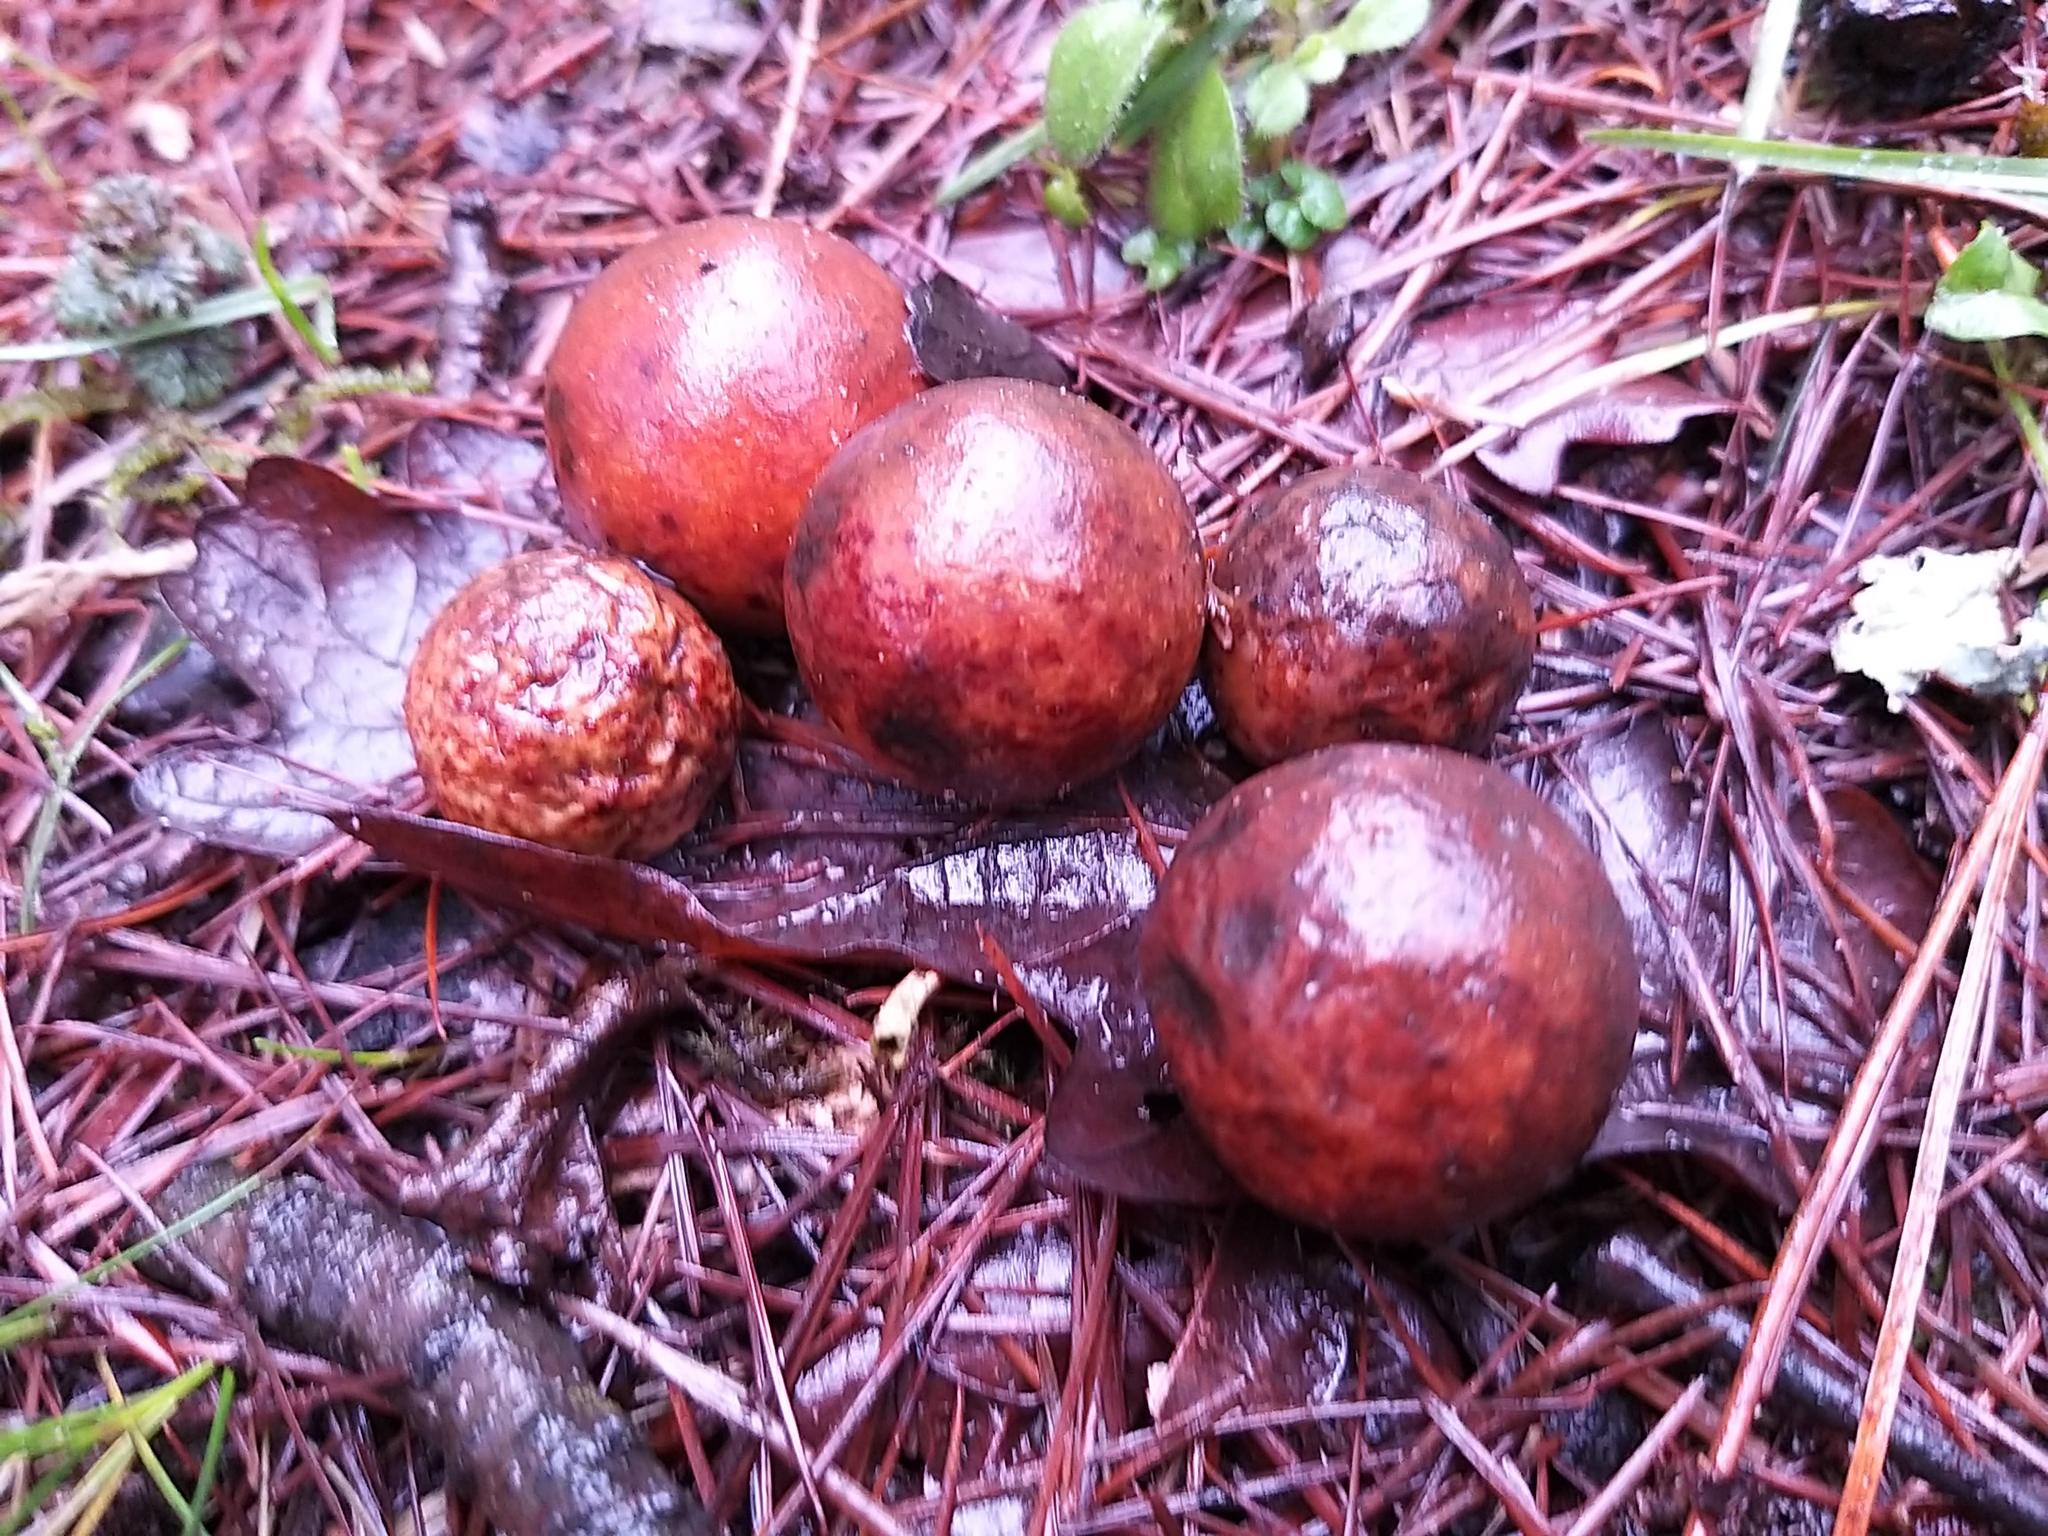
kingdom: Animalia
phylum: Arthropoda
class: Insecta
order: Hymenoptera
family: Cynipidae
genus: Cynips
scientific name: Cynips quercusfolii
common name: Cherry gall
